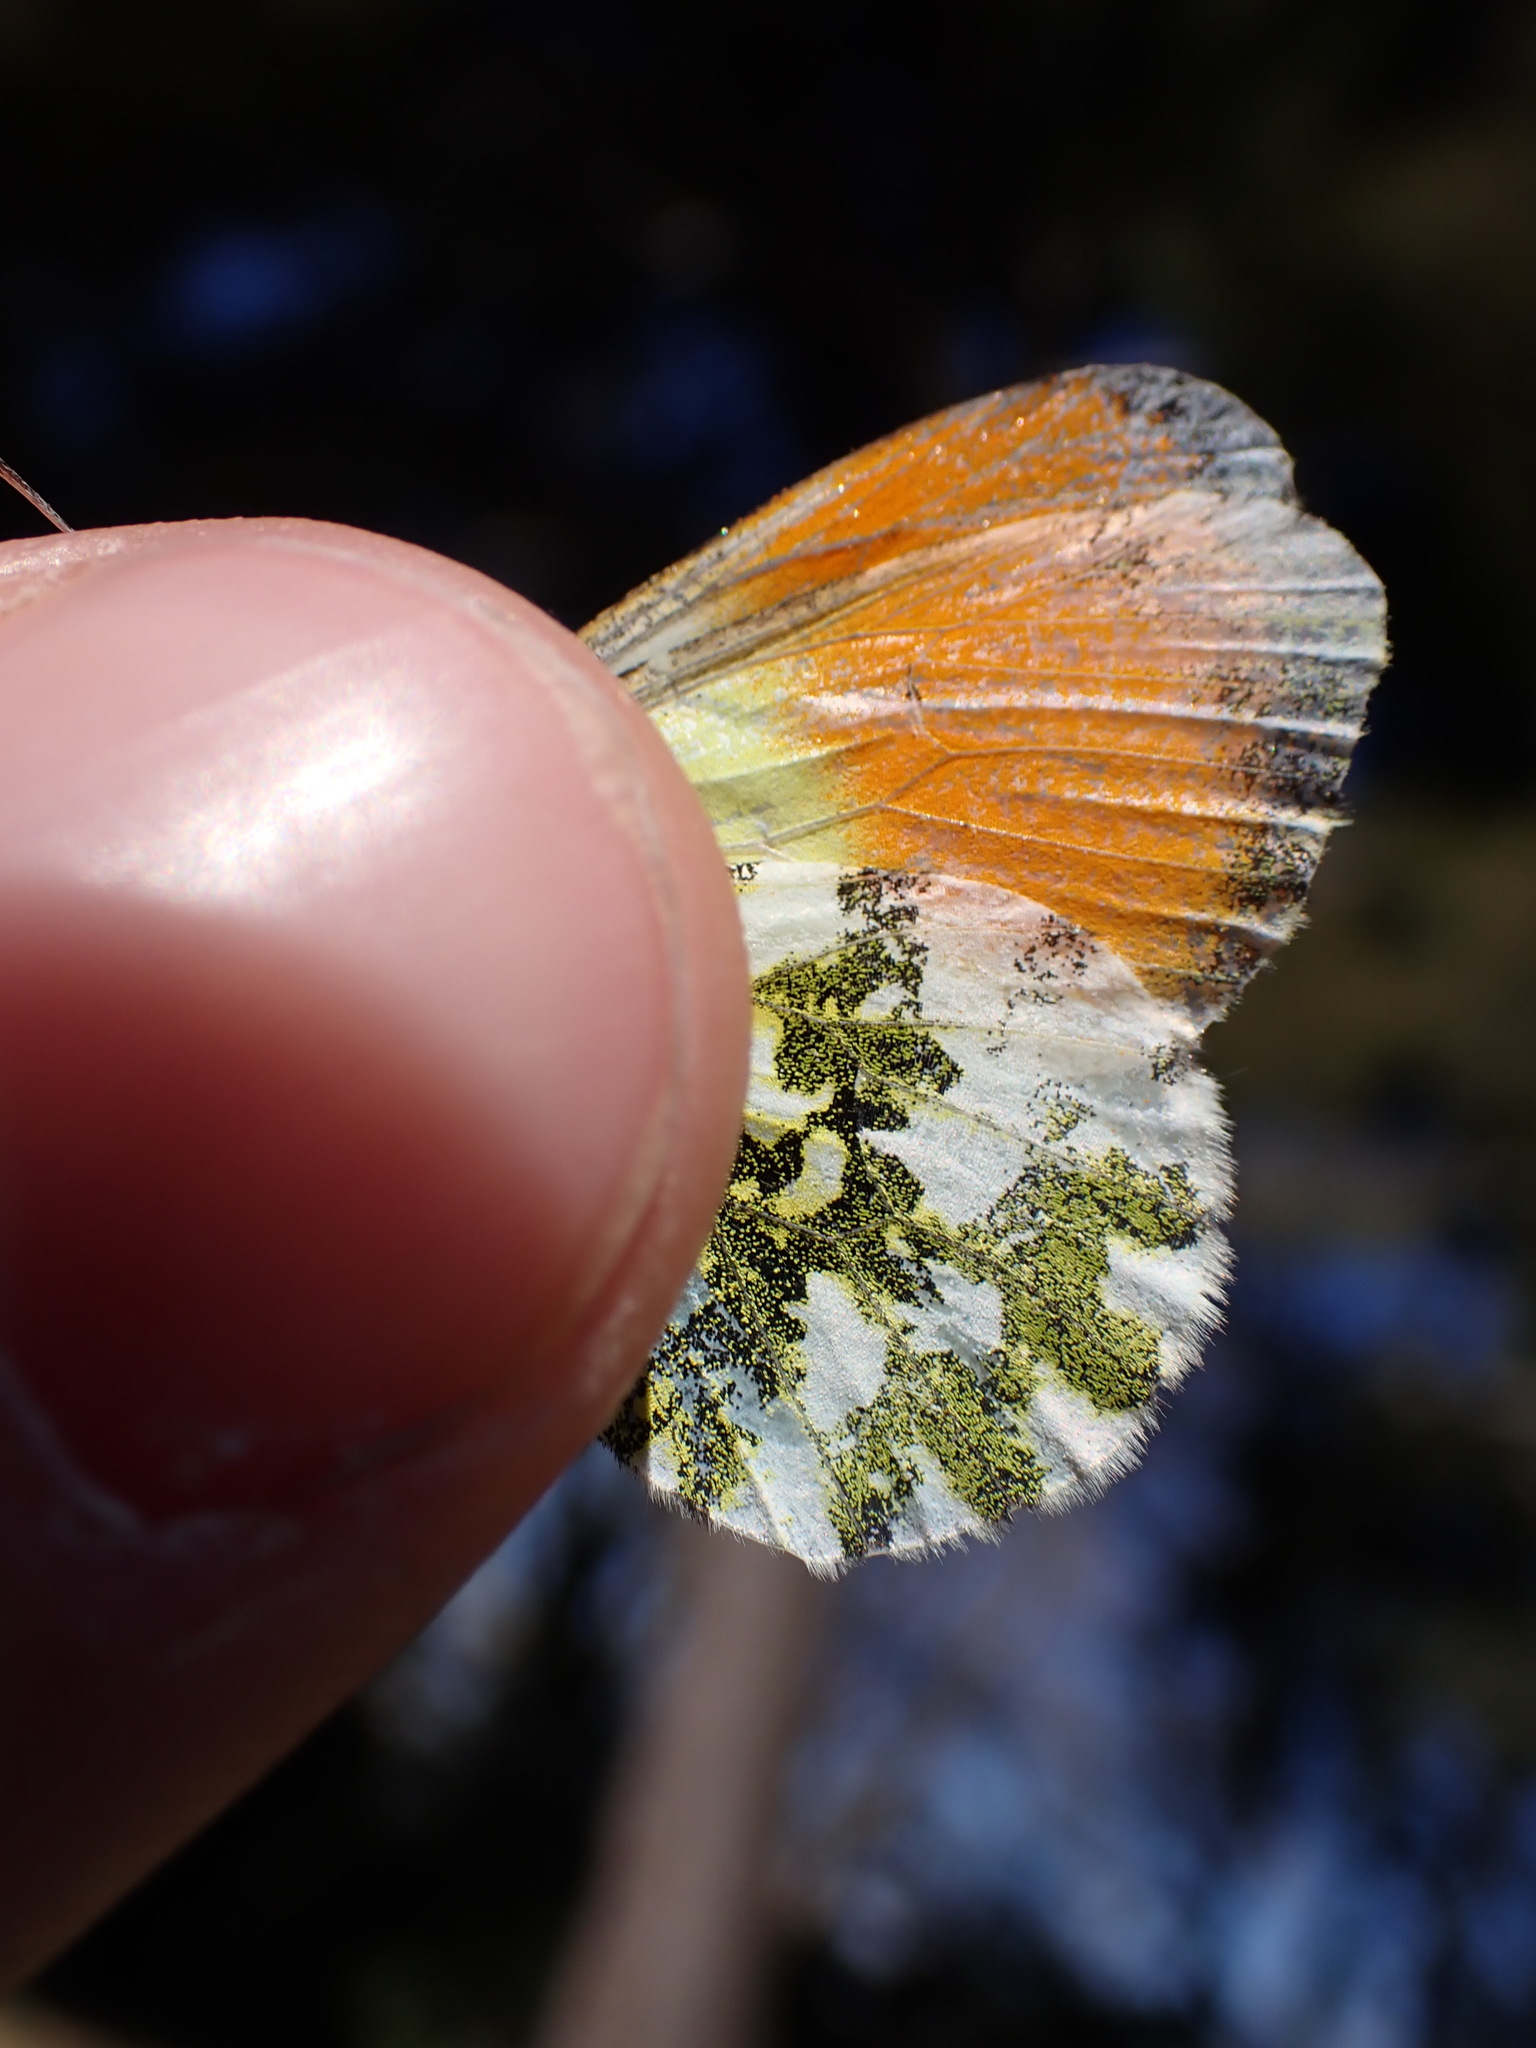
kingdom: Animalia
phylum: Arthropoda
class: Insecta
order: Lepidoptera
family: Pieridae
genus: Anthocharis
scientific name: Anthocharis cardamines
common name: Orange-tip
